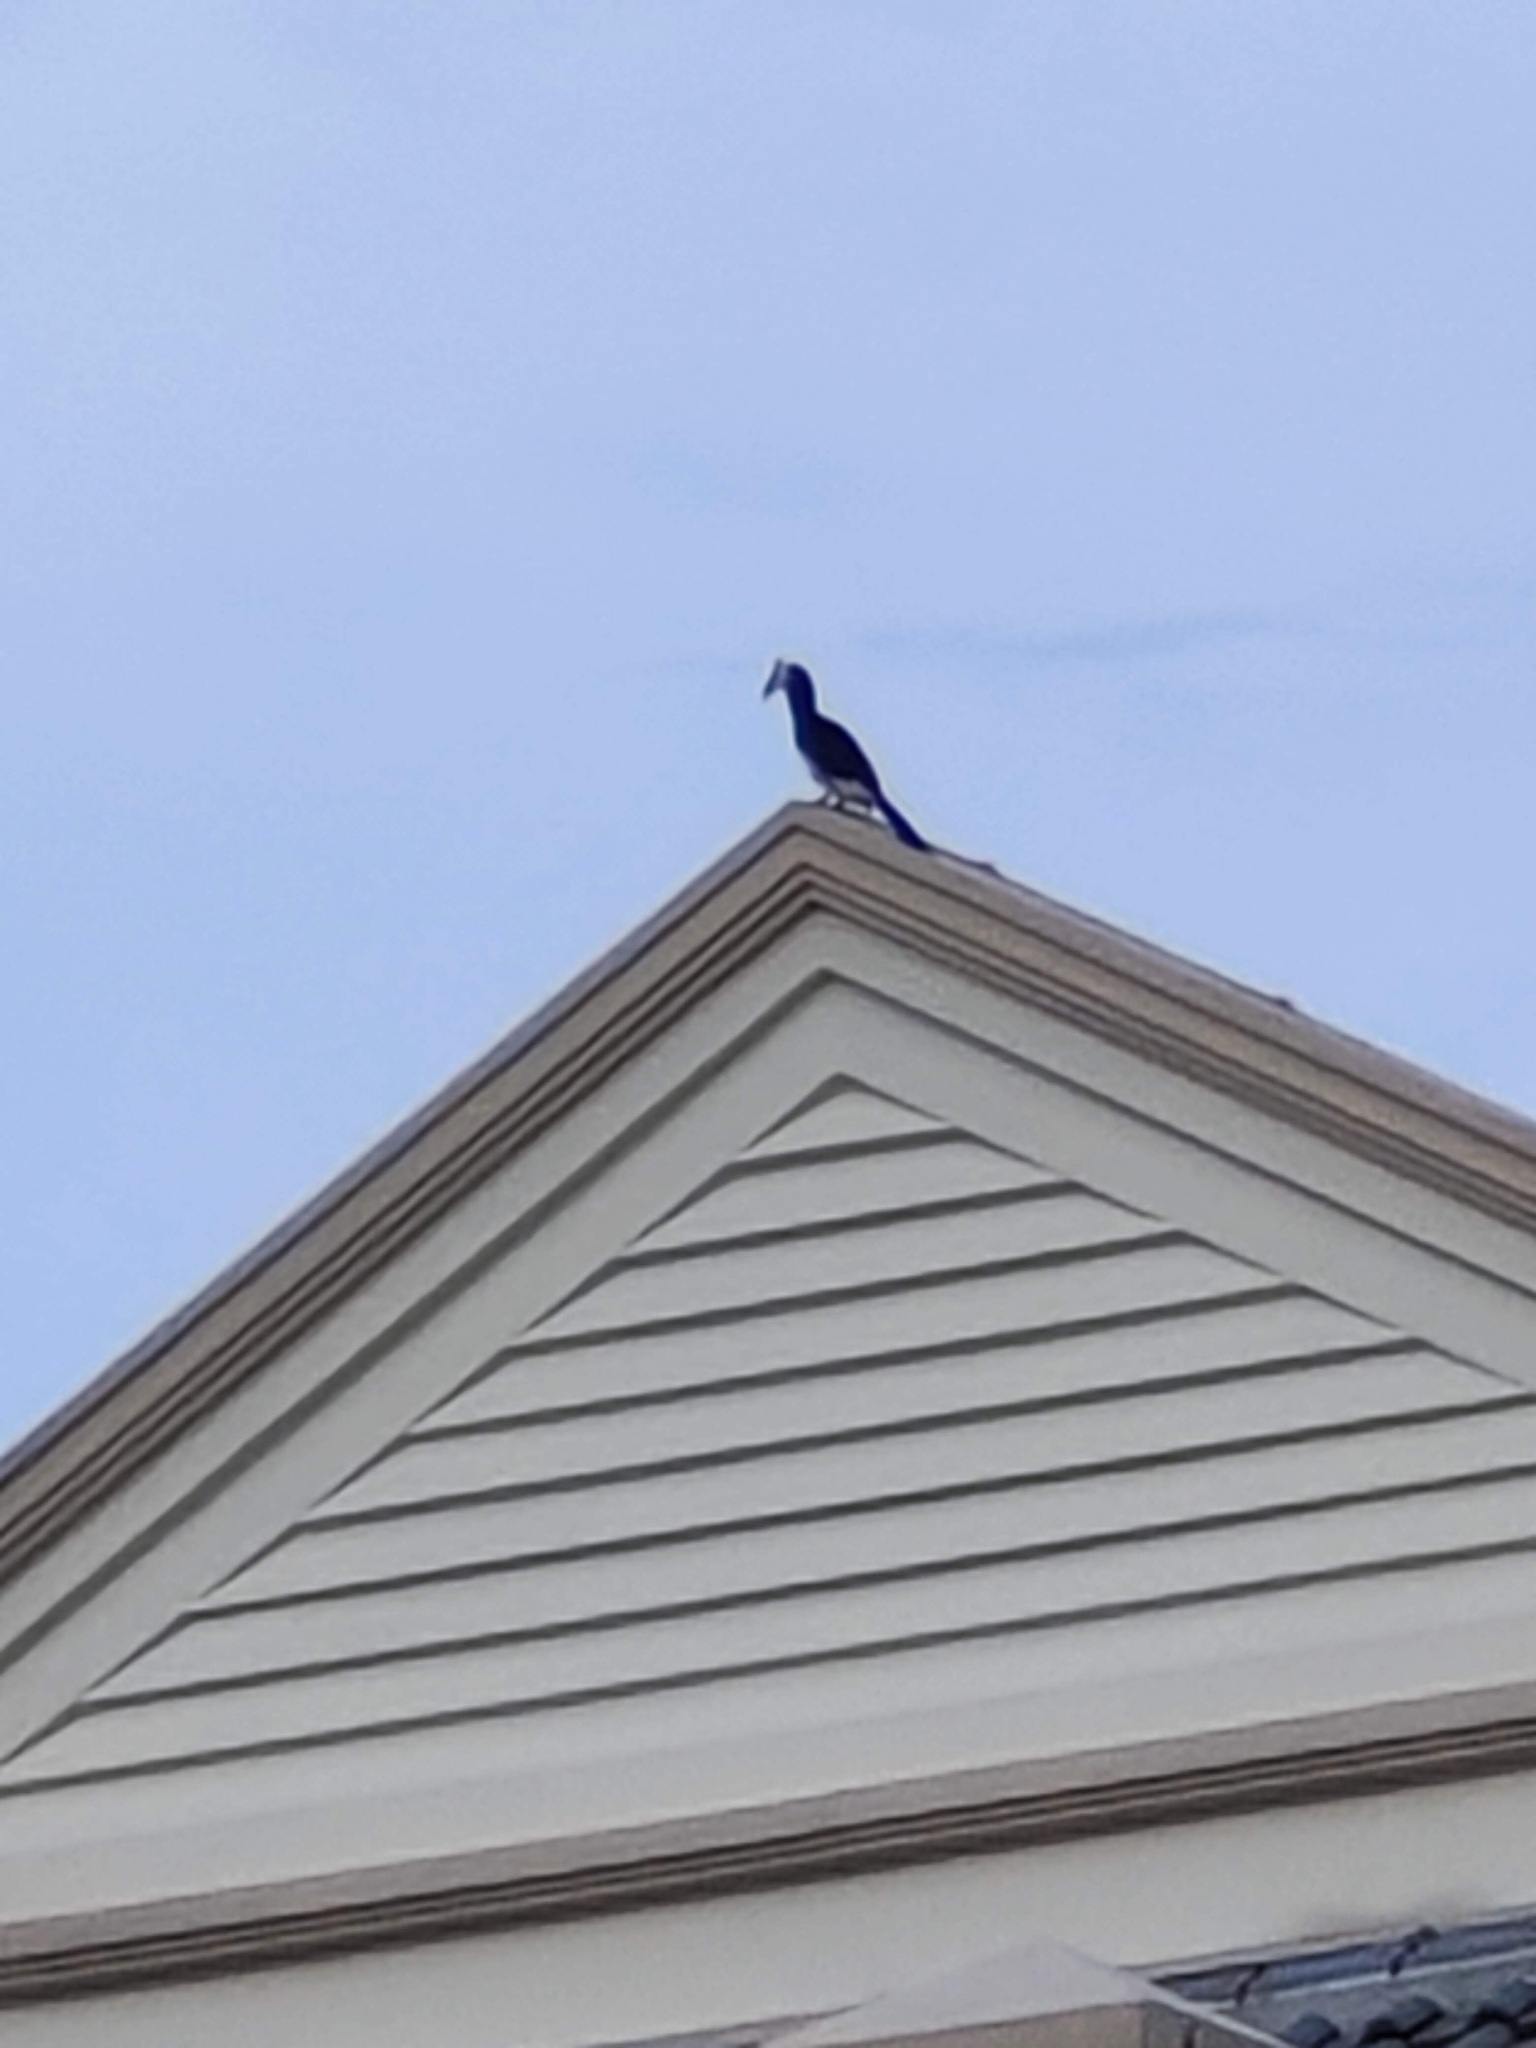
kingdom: Animalia
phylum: Chordata
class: Aves
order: Bucerotiformes
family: Bucerotidae
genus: Anthracoceros
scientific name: Anthracoceros albirostris
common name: Oriental pied-hornbill
